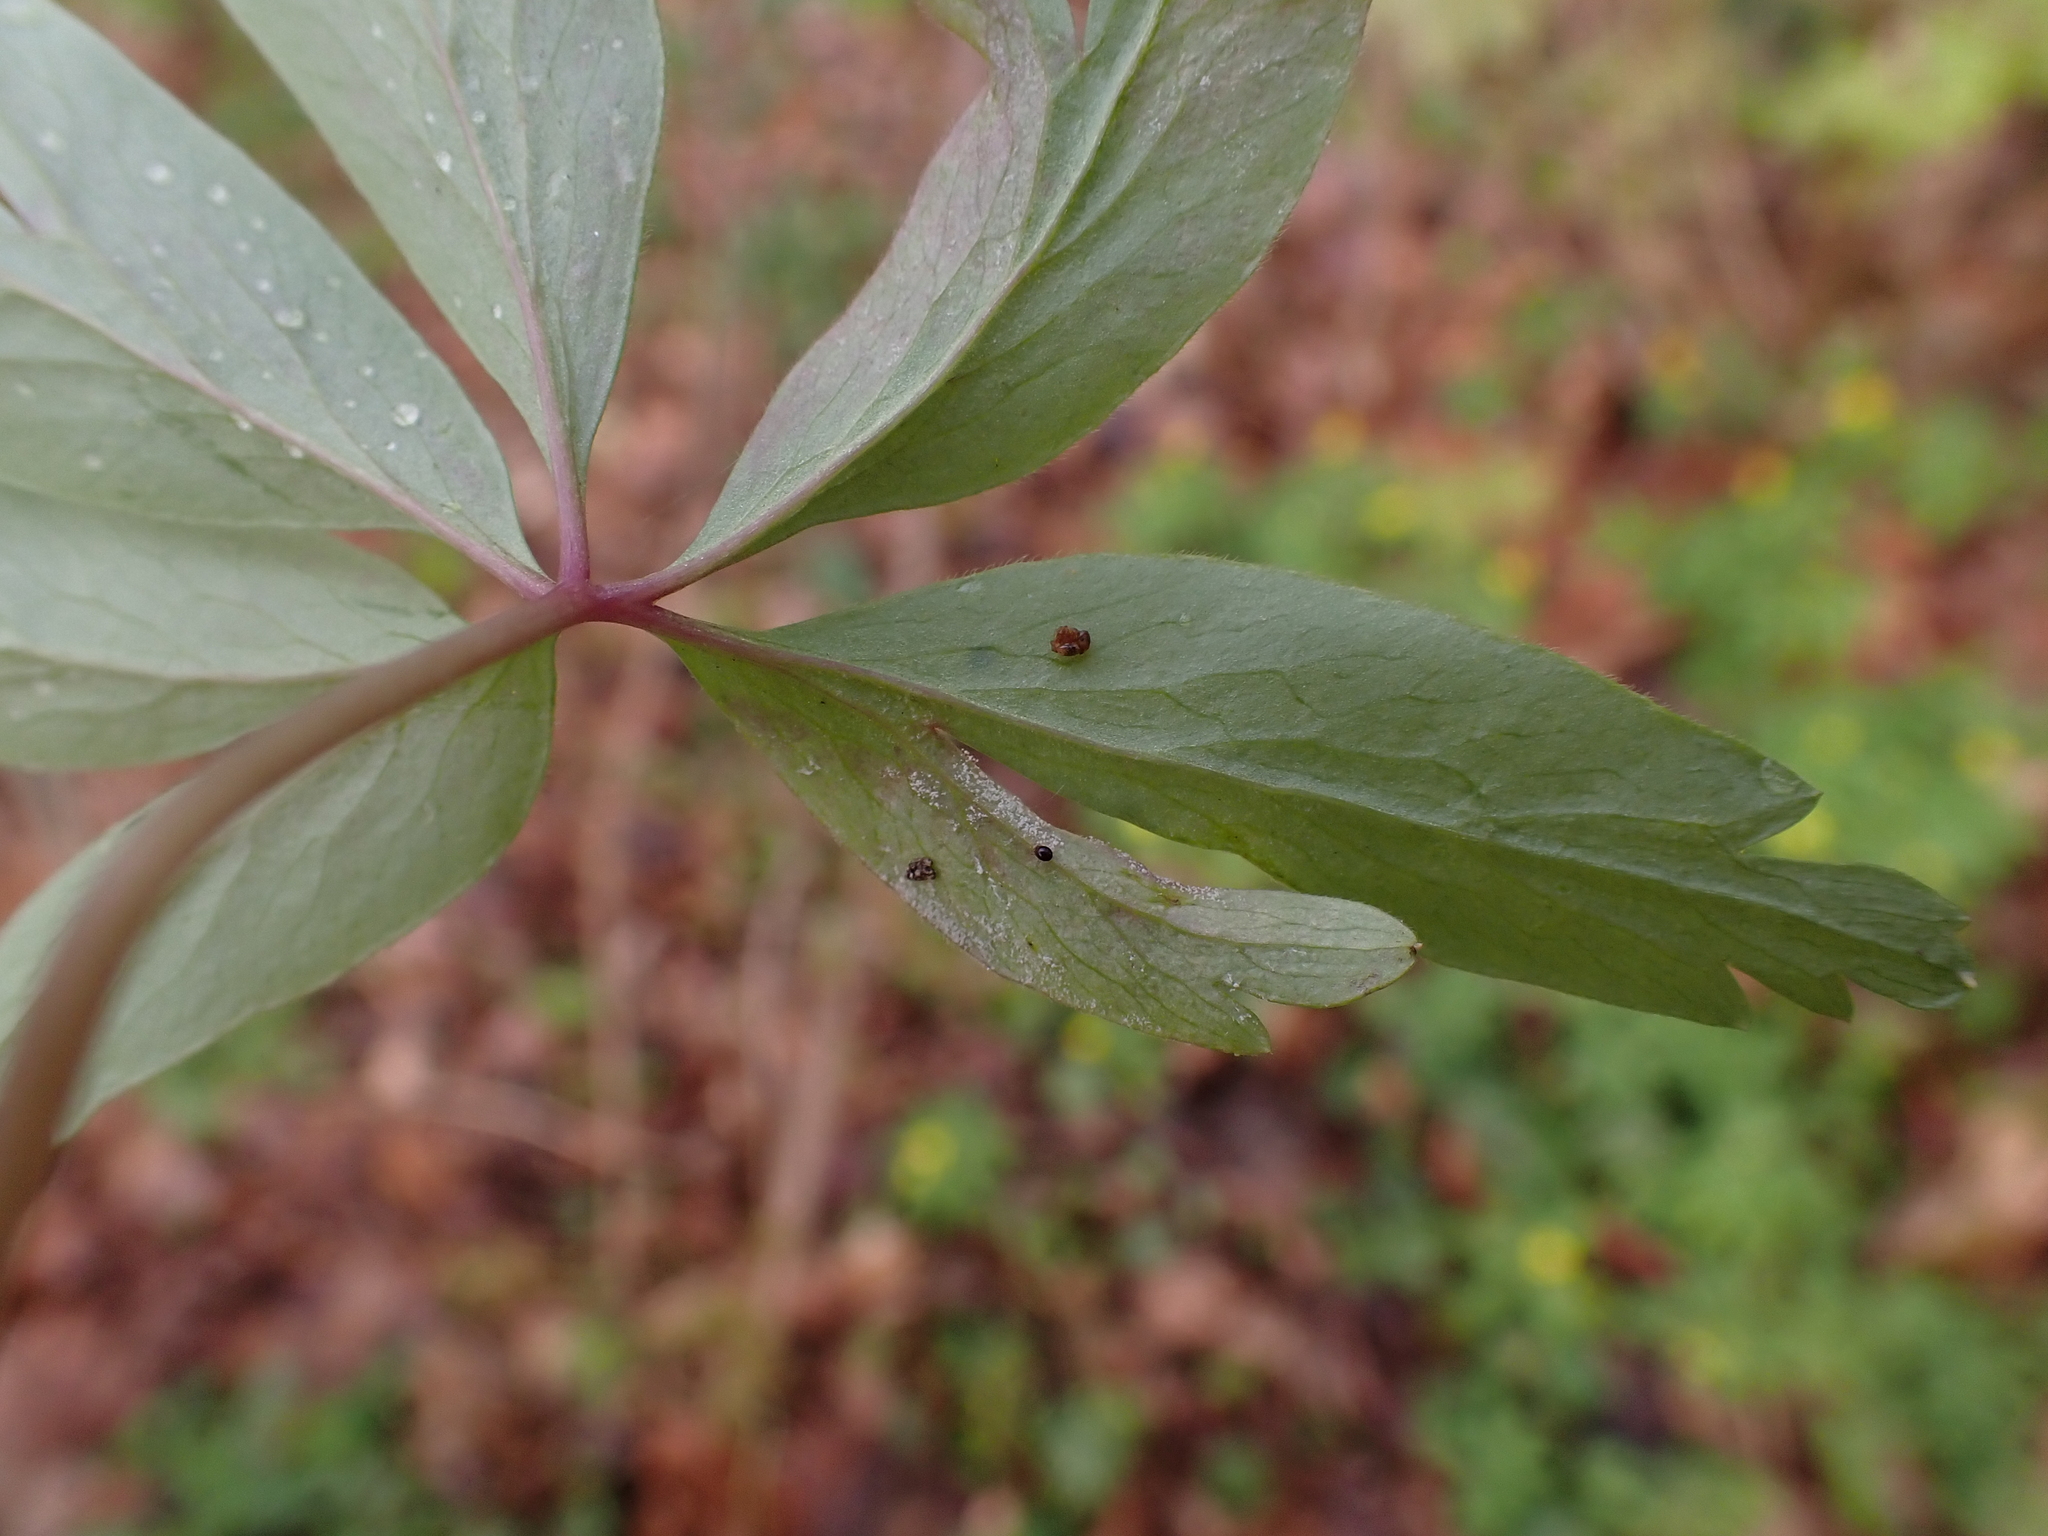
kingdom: Chromista
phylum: Oomycota
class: Peronosporea
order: Peronosporales
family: Peronosporaceae
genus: Plasmoverna
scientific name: Plasmoverna anemones-ranunculoidis
